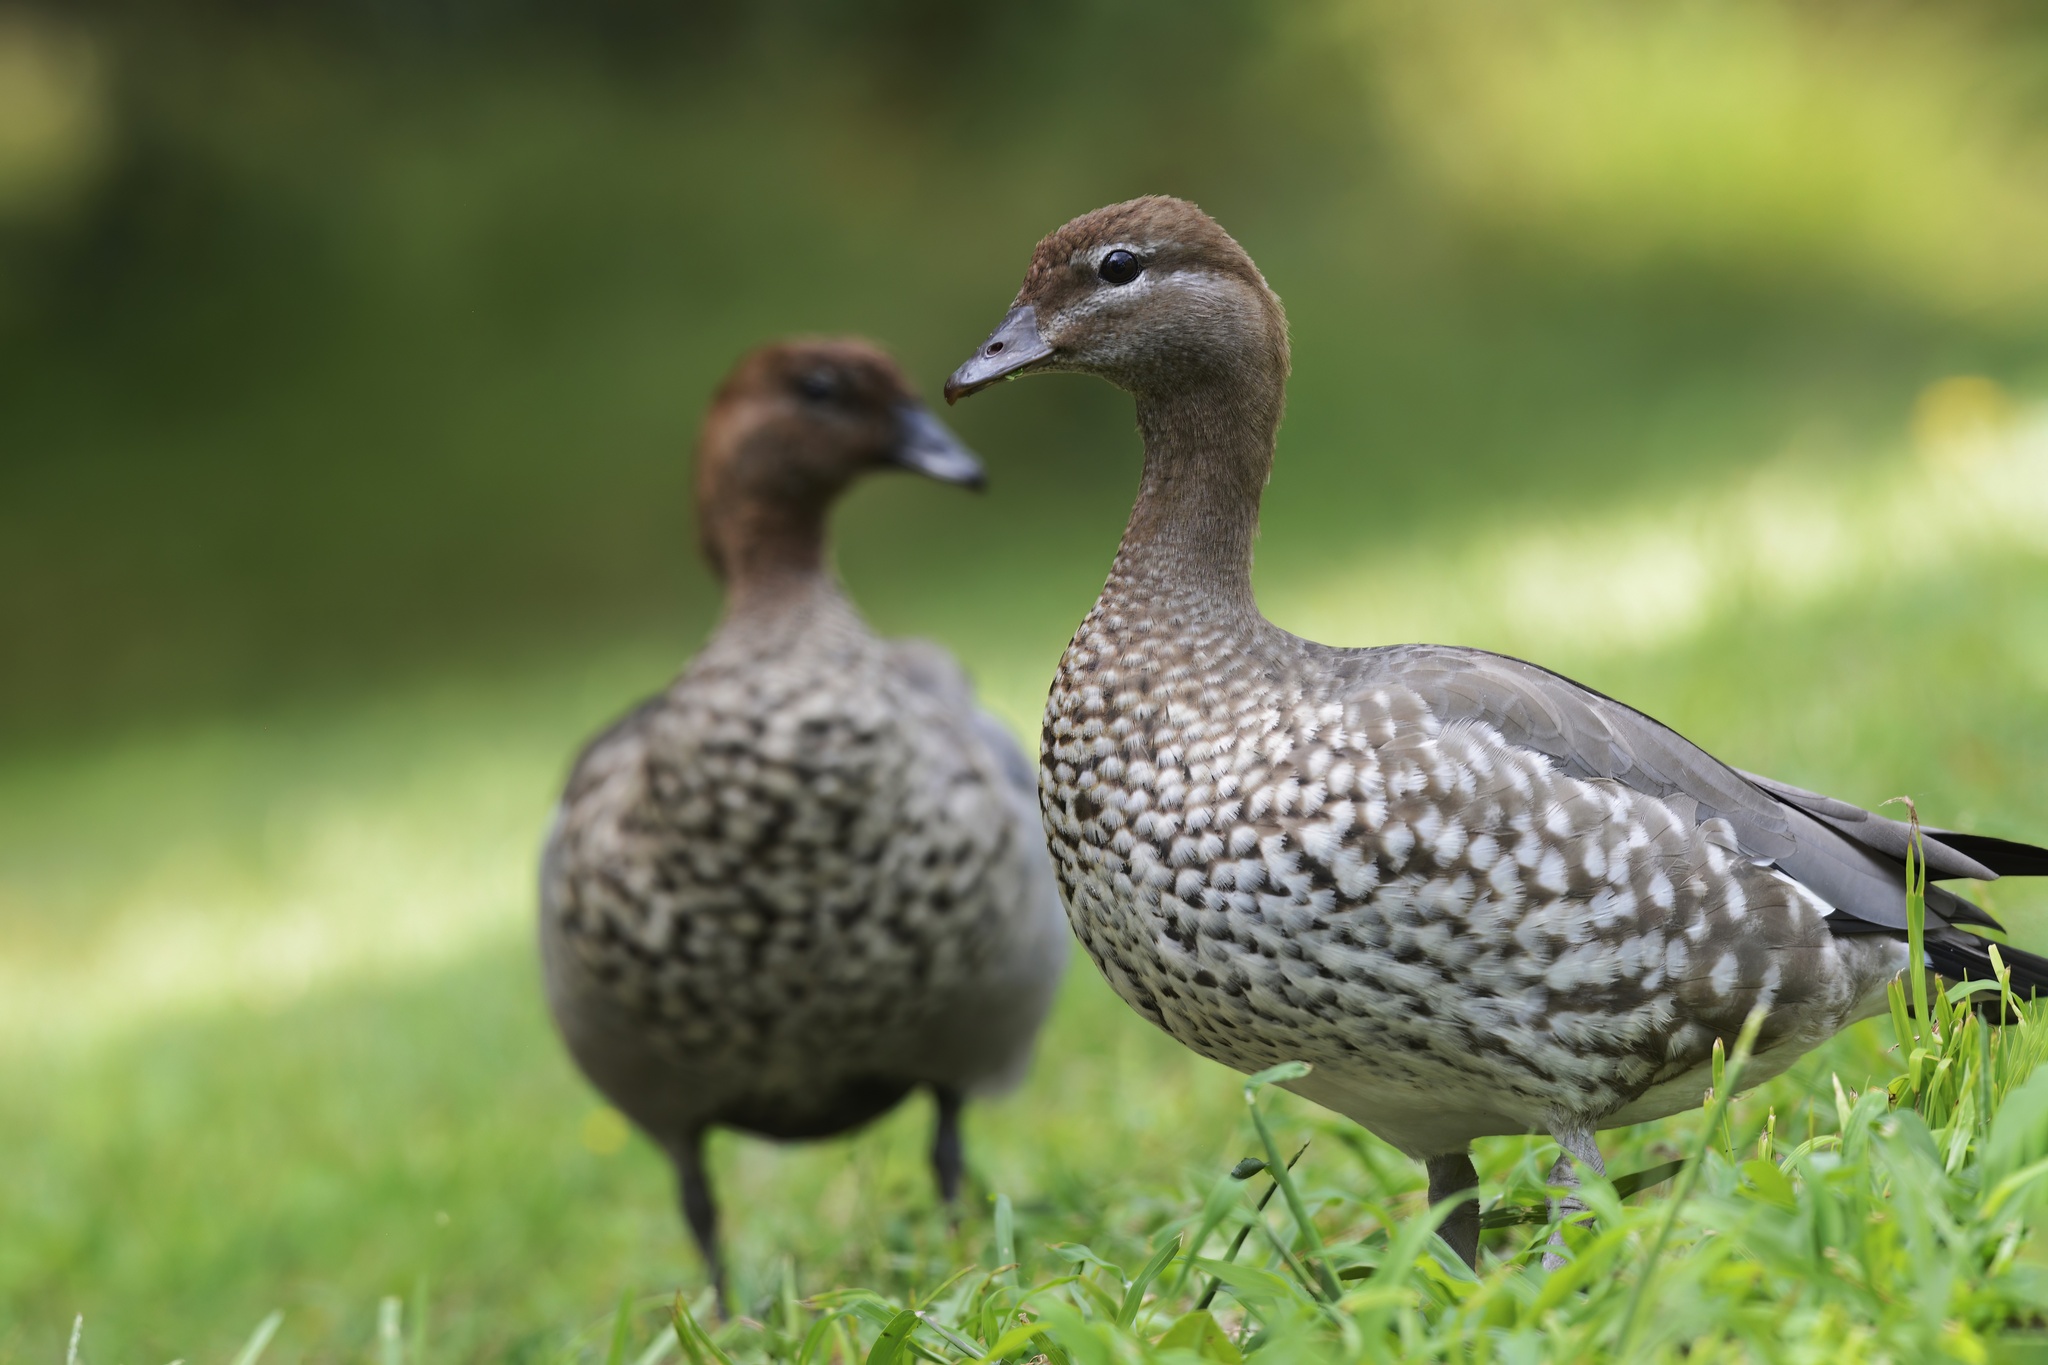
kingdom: Animalia
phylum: Chordata
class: Aves
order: Anseriformes
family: Anatidae
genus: Chenonetta
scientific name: Chenonetta jubata
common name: Maned duck
